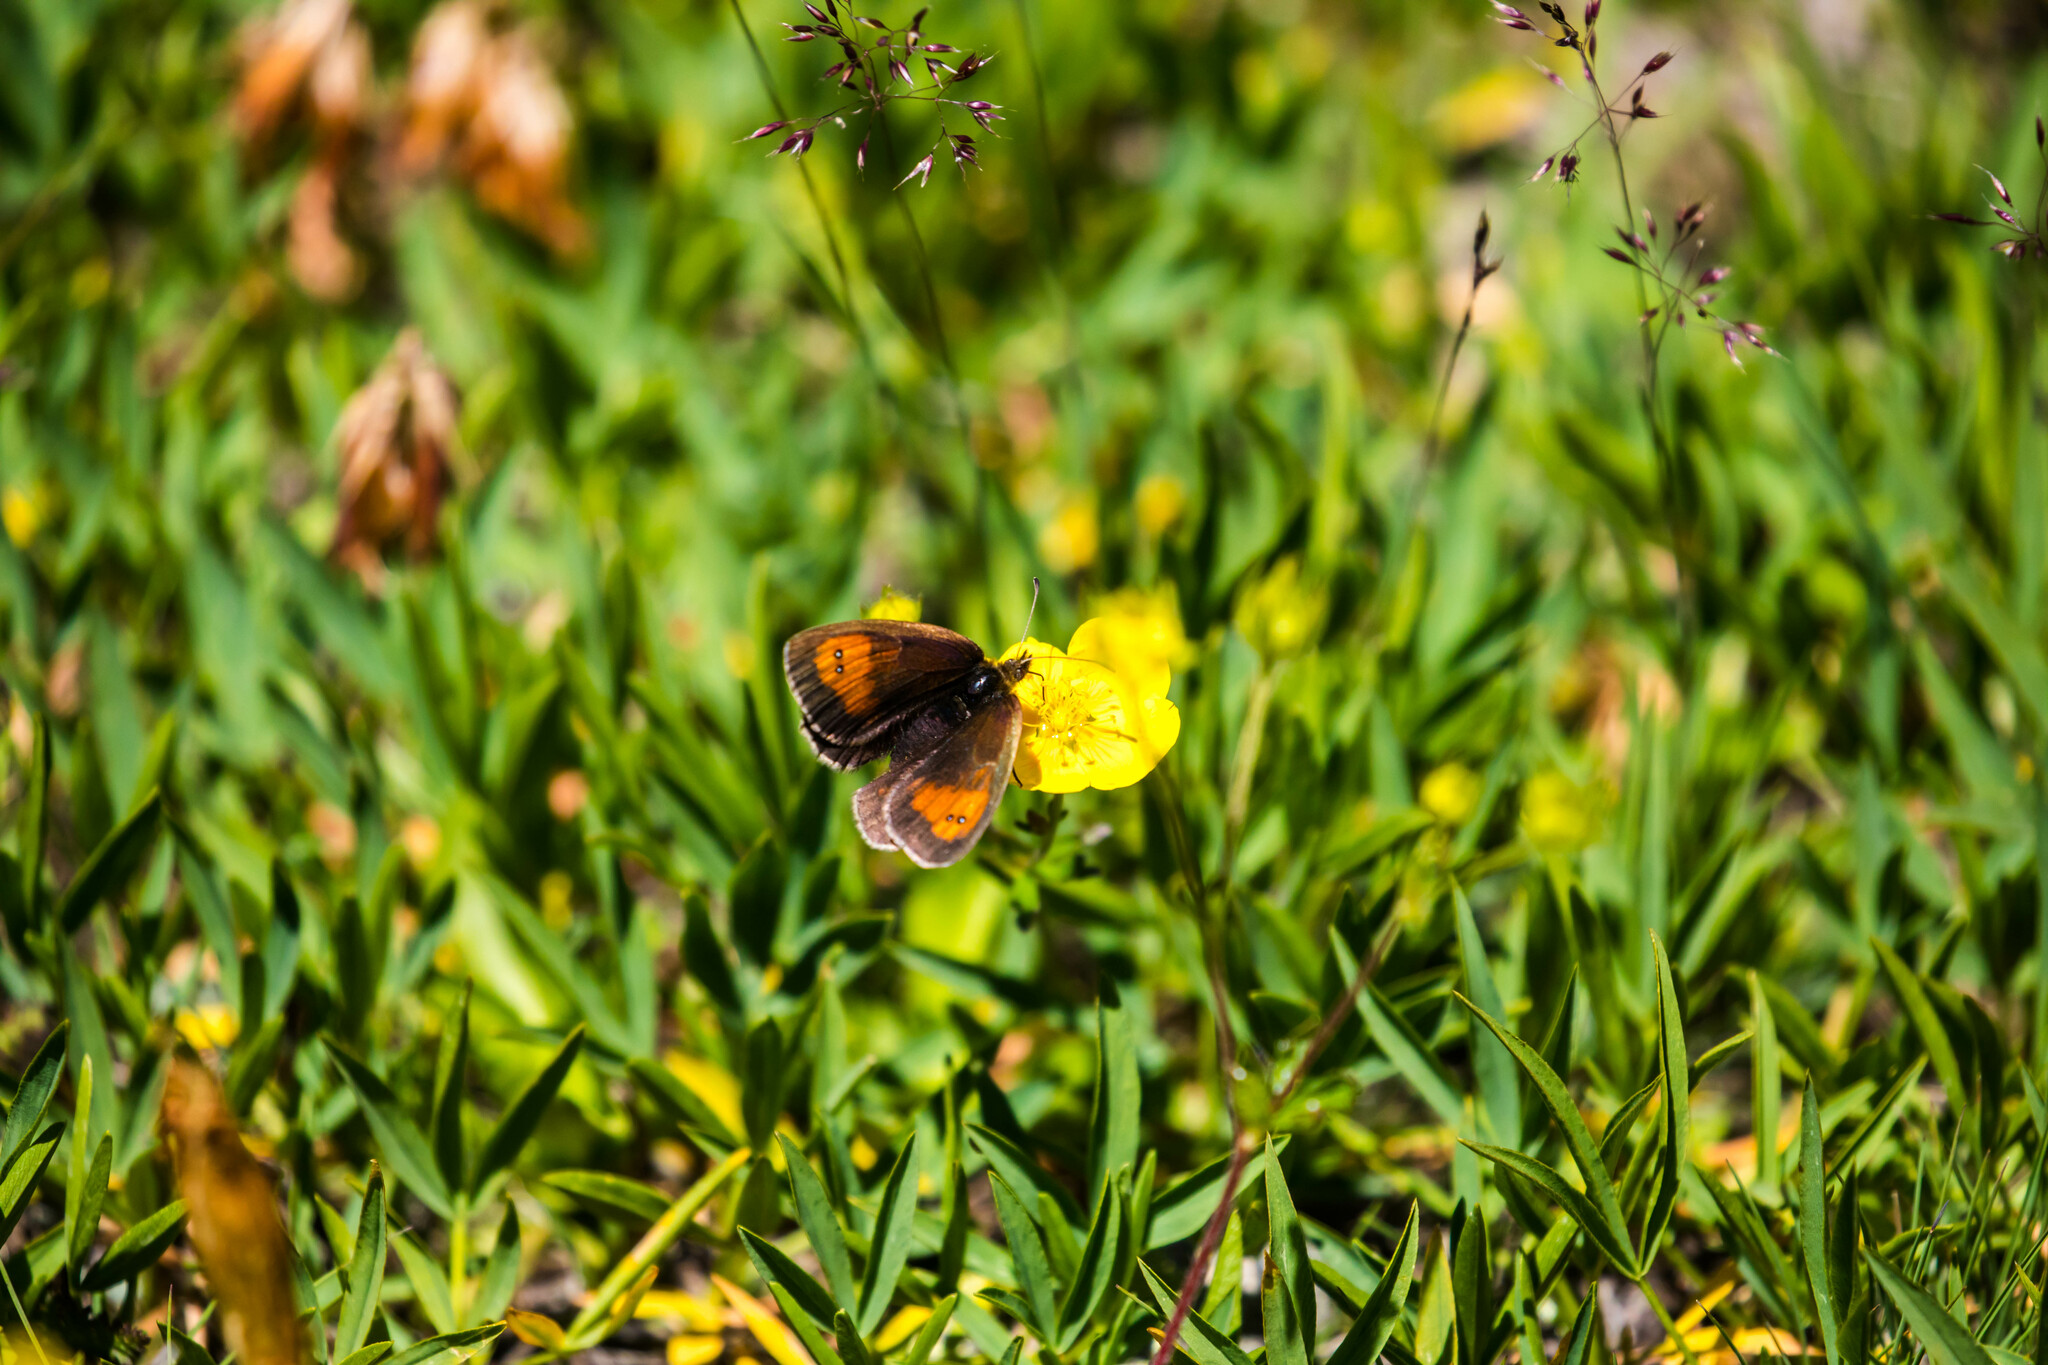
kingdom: Animalia
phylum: Arthropoda
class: Insecta
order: Lepidoptera
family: Nymphalidae
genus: Erebia
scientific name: Erebia mnestra
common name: Mnestra’s ringlet
